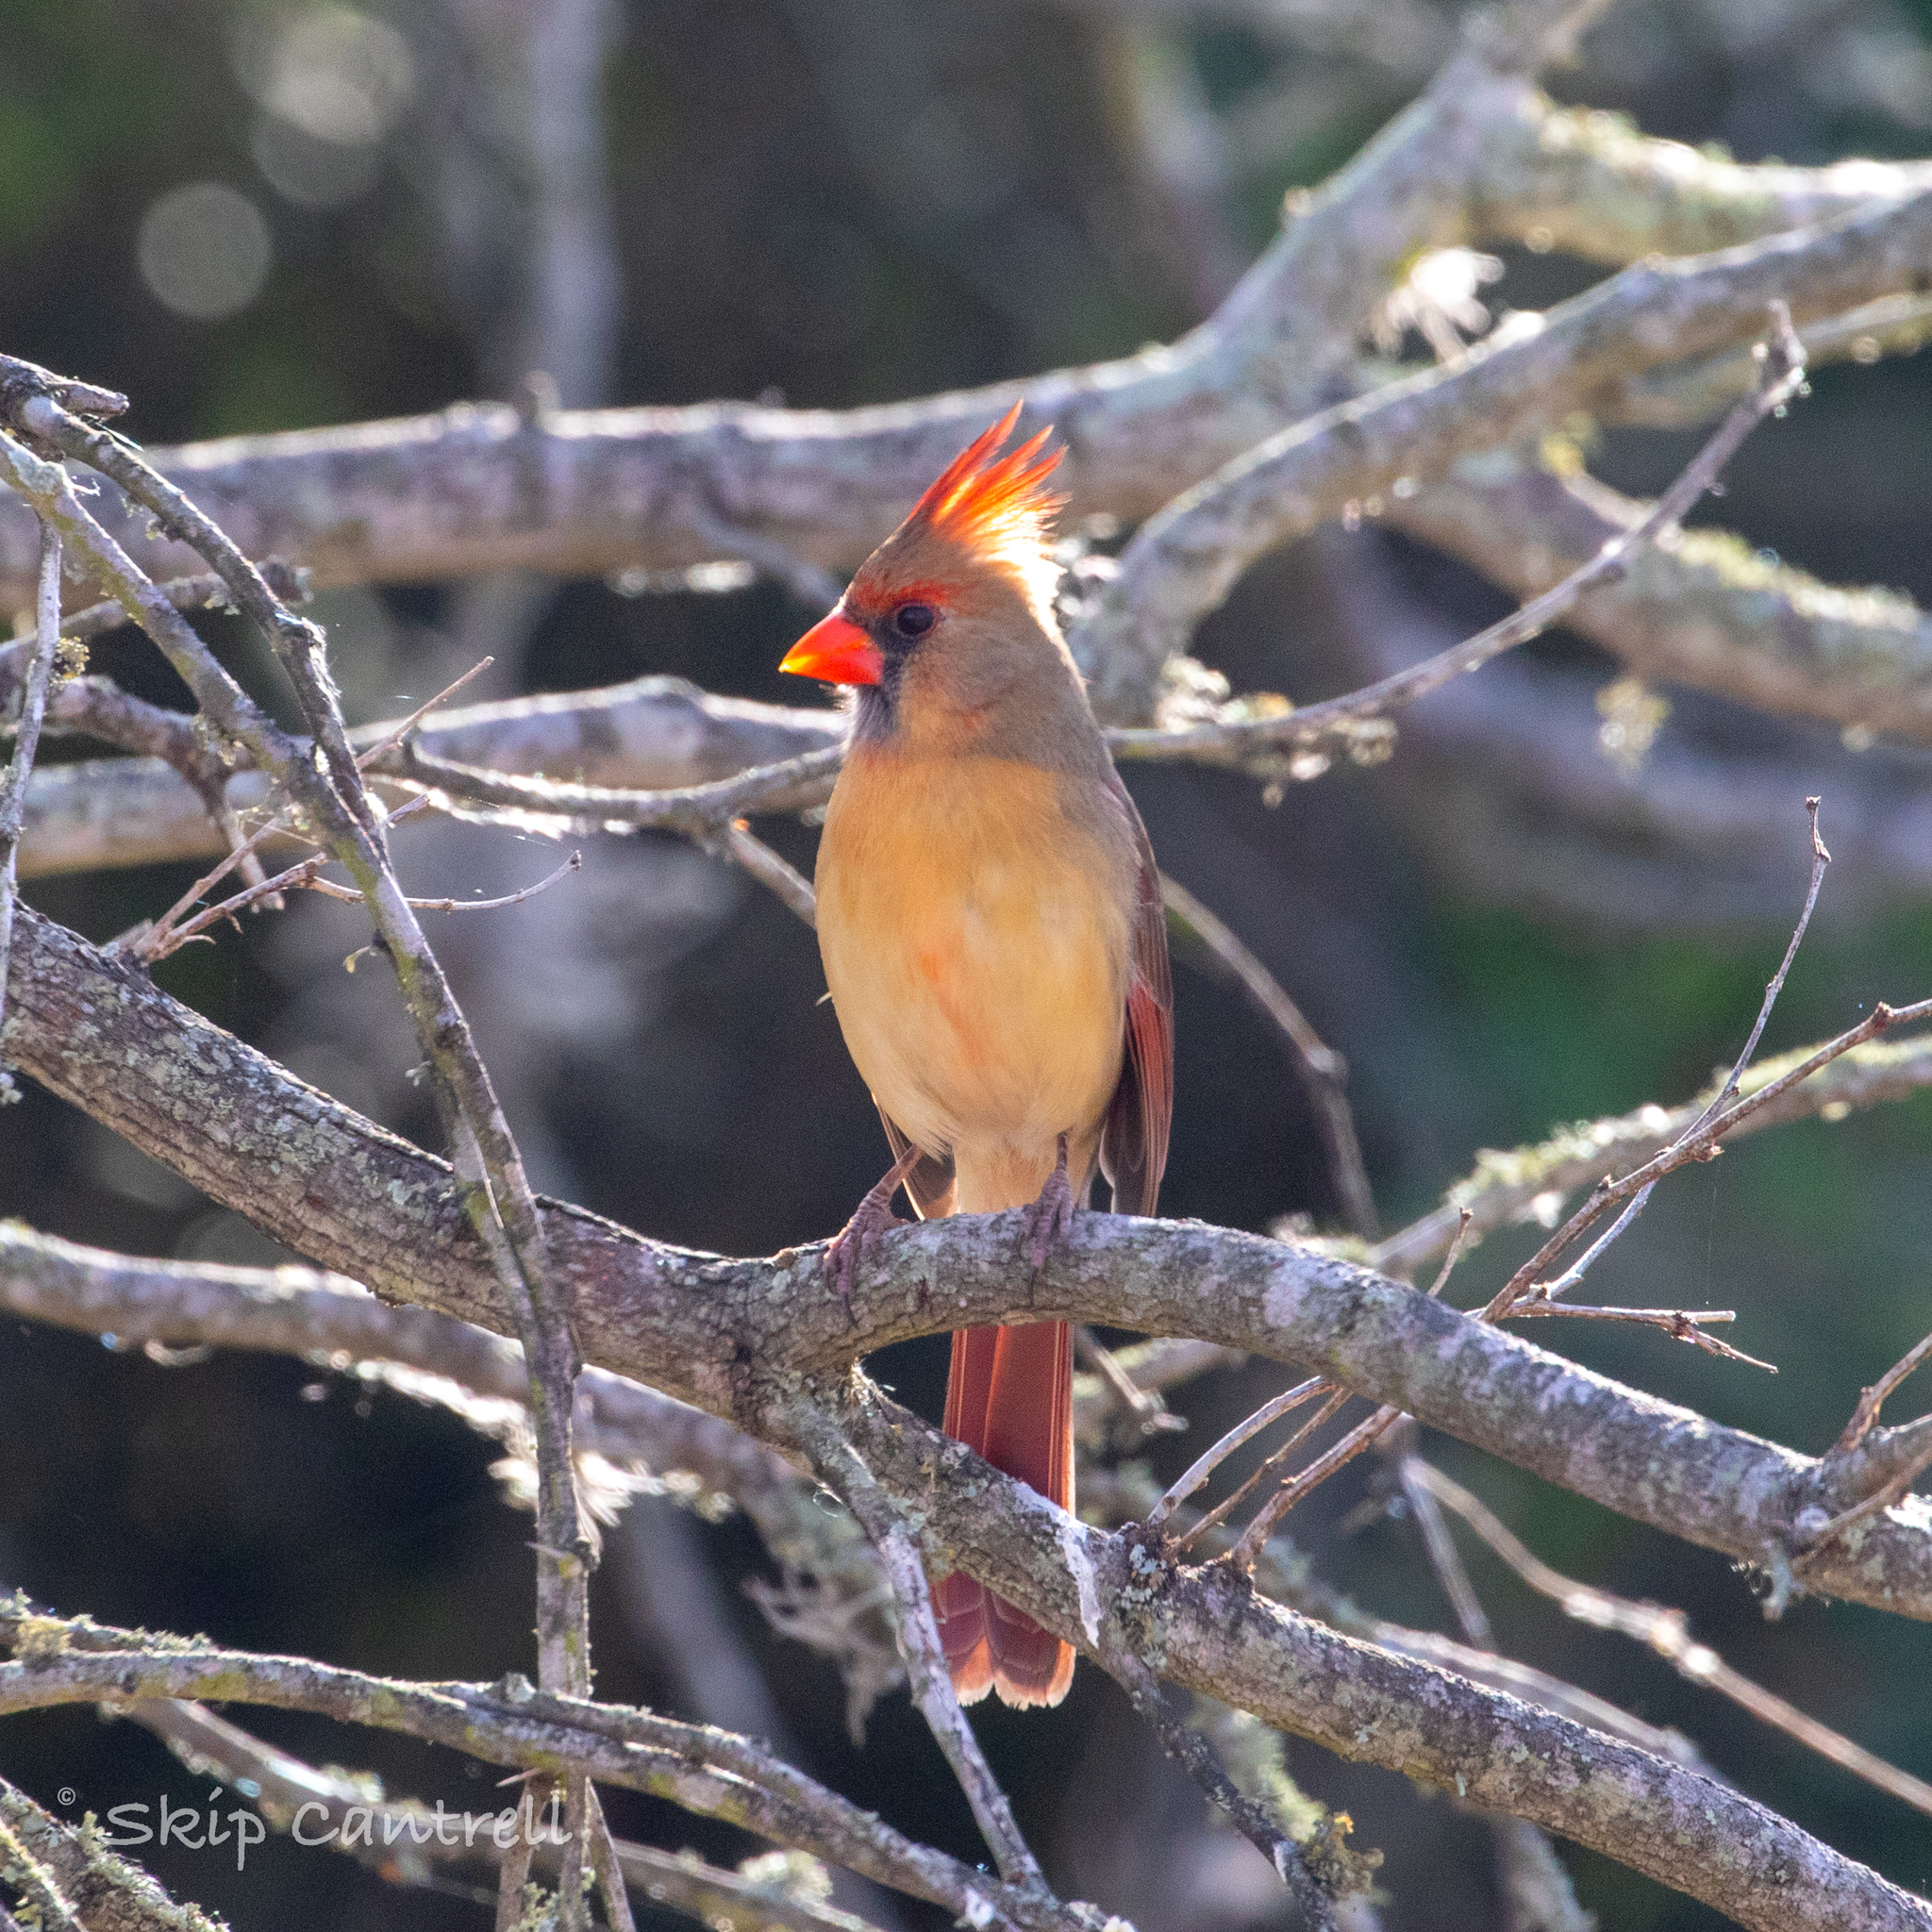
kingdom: Animalia
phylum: Chordata
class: Aves
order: Passeriformes
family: Cardinalidae
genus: Cardinalis
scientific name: Cardinalis cardinalis
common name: Northern cardinal
